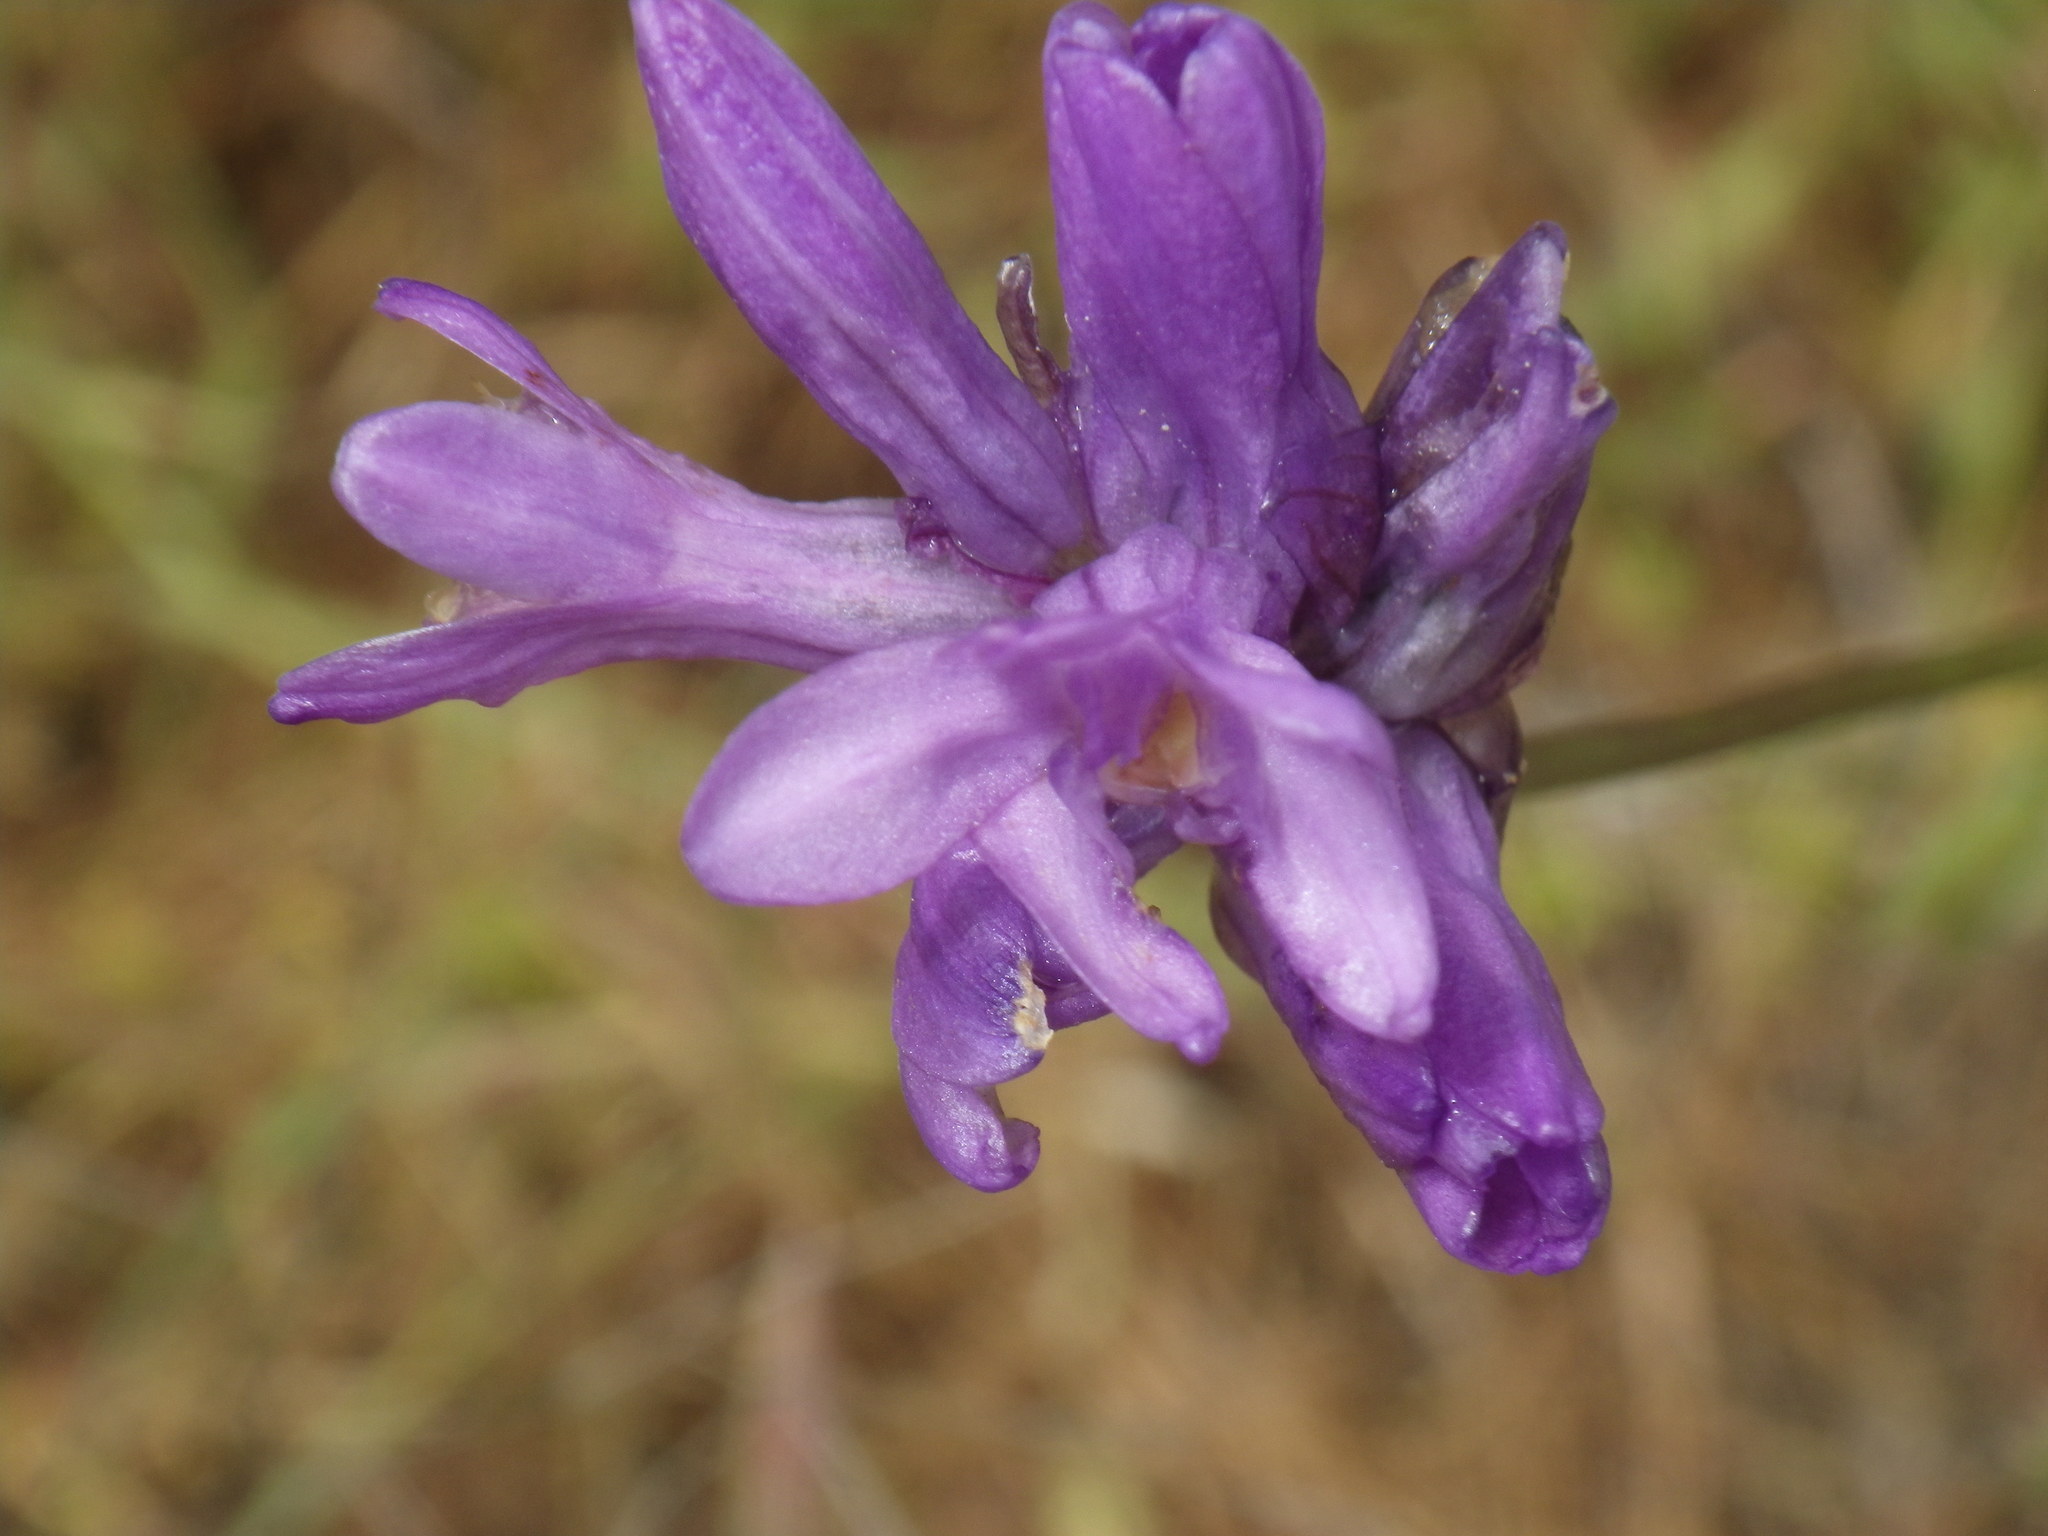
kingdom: Plantae
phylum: Tracheophyta
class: Liliopsida
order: Asparagales
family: Asparagaceae
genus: Dichelostemma
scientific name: Dichelostemma congestum
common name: Fork-tooth ookow
